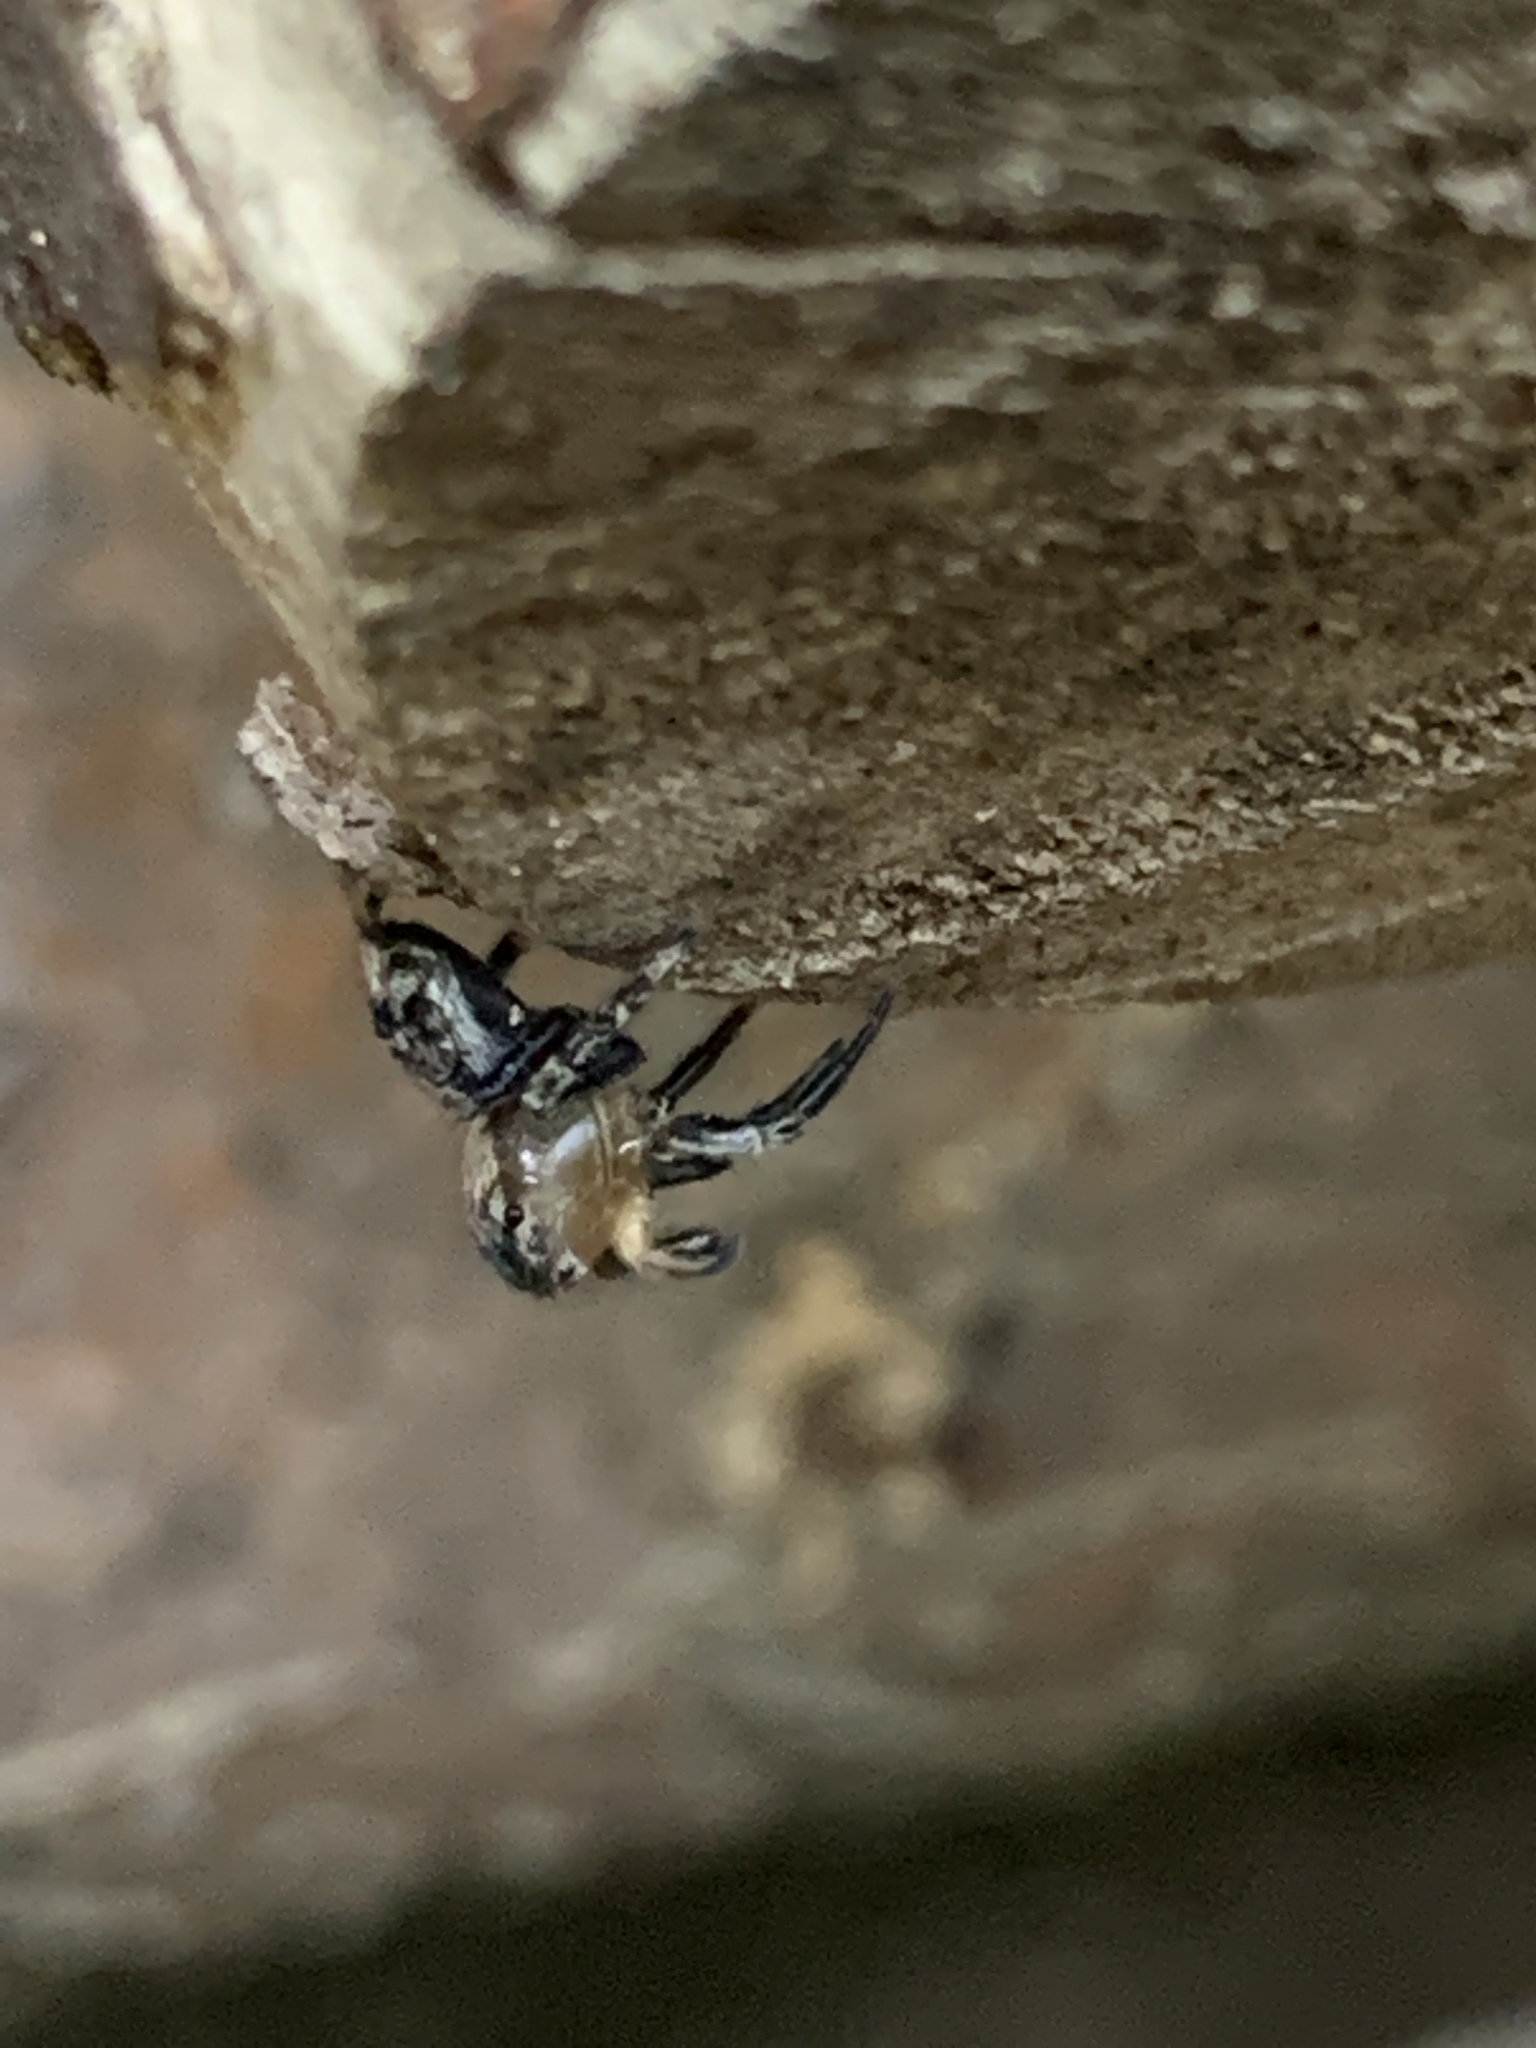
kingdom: Animalia
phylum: Arthropoda
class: Arachnida
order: Araneae
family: Salticidae
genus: Naphrys
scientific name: Naphrys pulex
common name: Flea jumping spider
